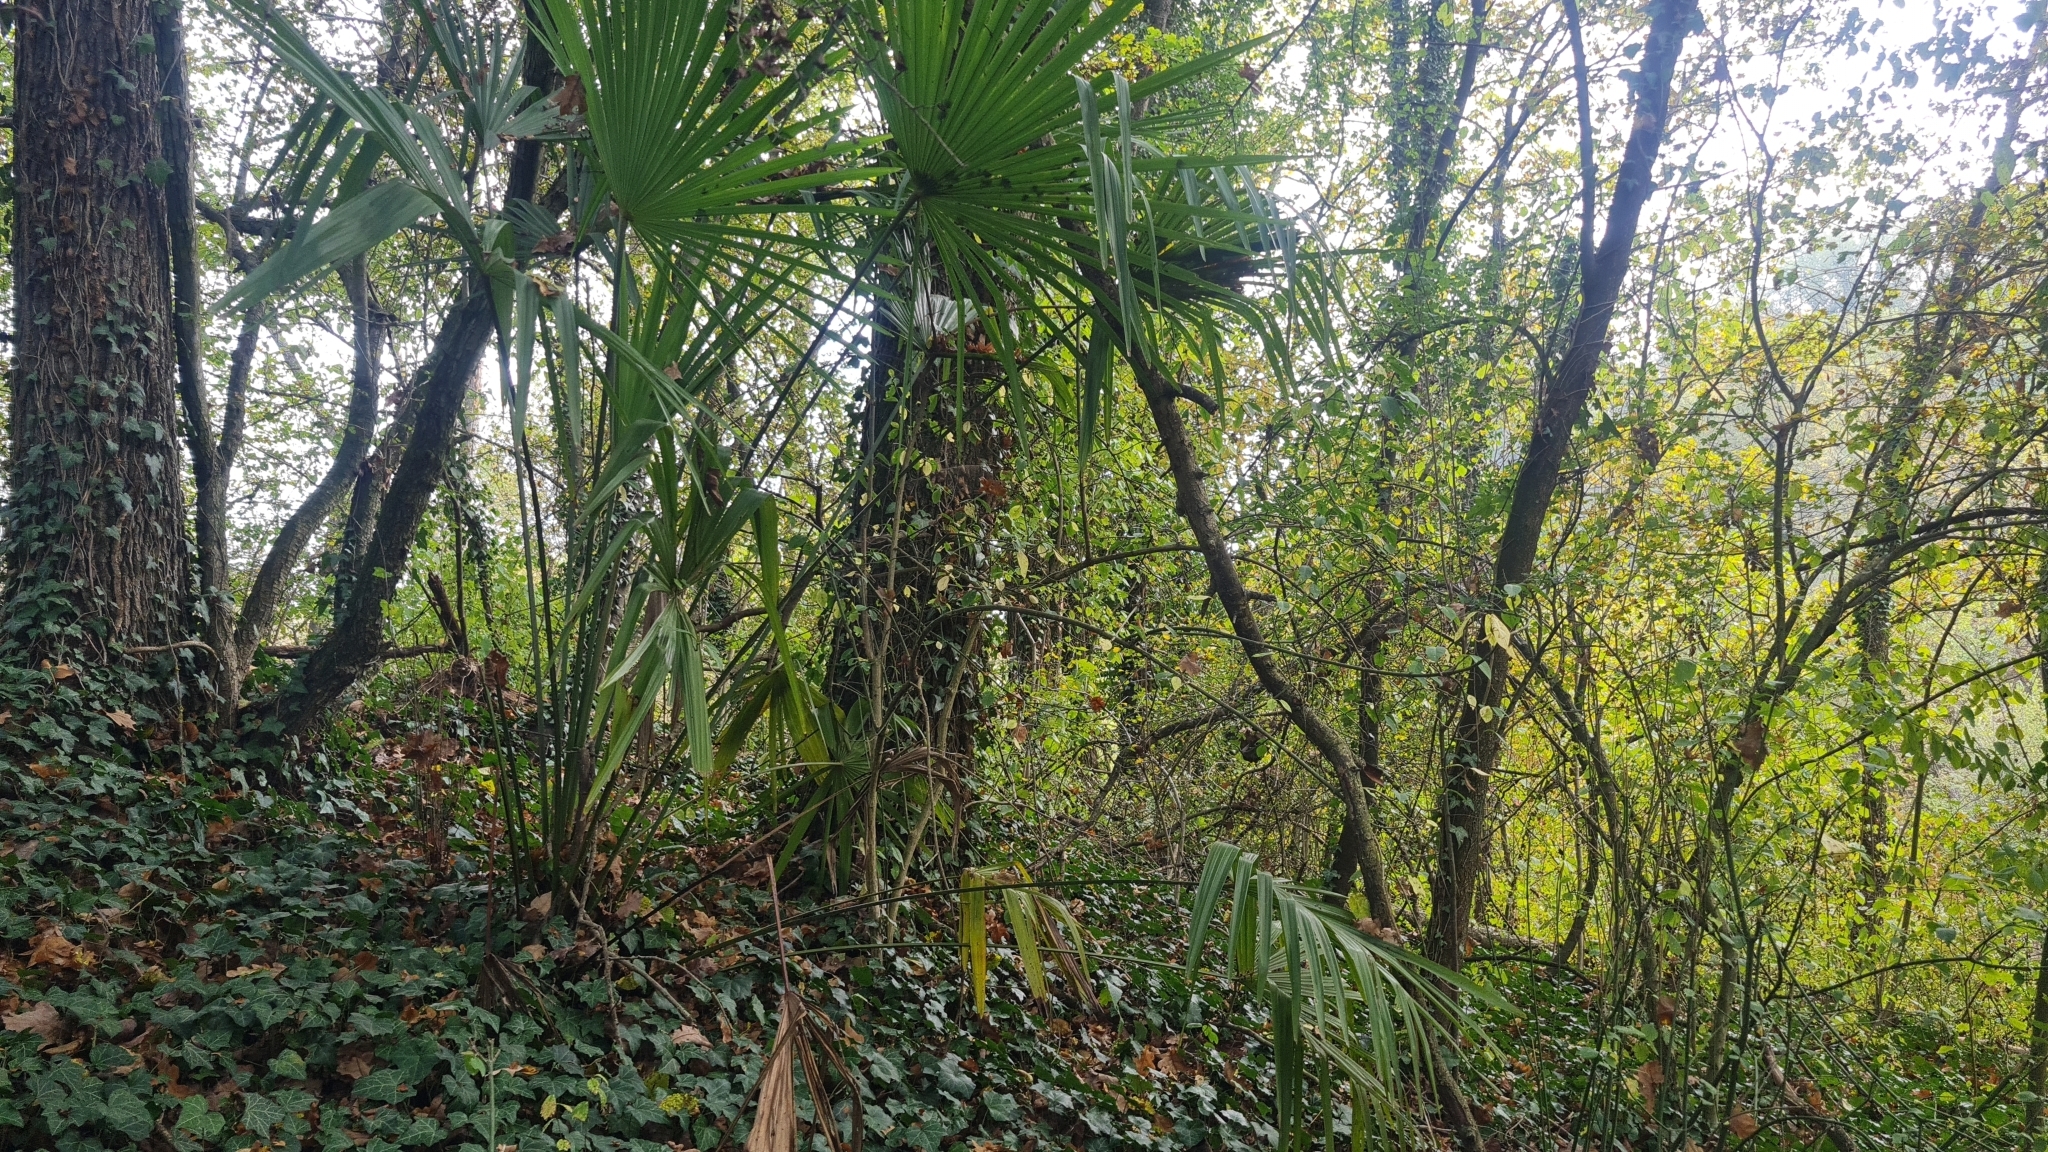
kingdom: Plantae
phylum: Tracheophyta
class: Liliopsida
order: Arecales
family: Arecaceae
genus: Trachycarpus
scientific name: Trachycarpus fortunei
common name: Chusan palm
